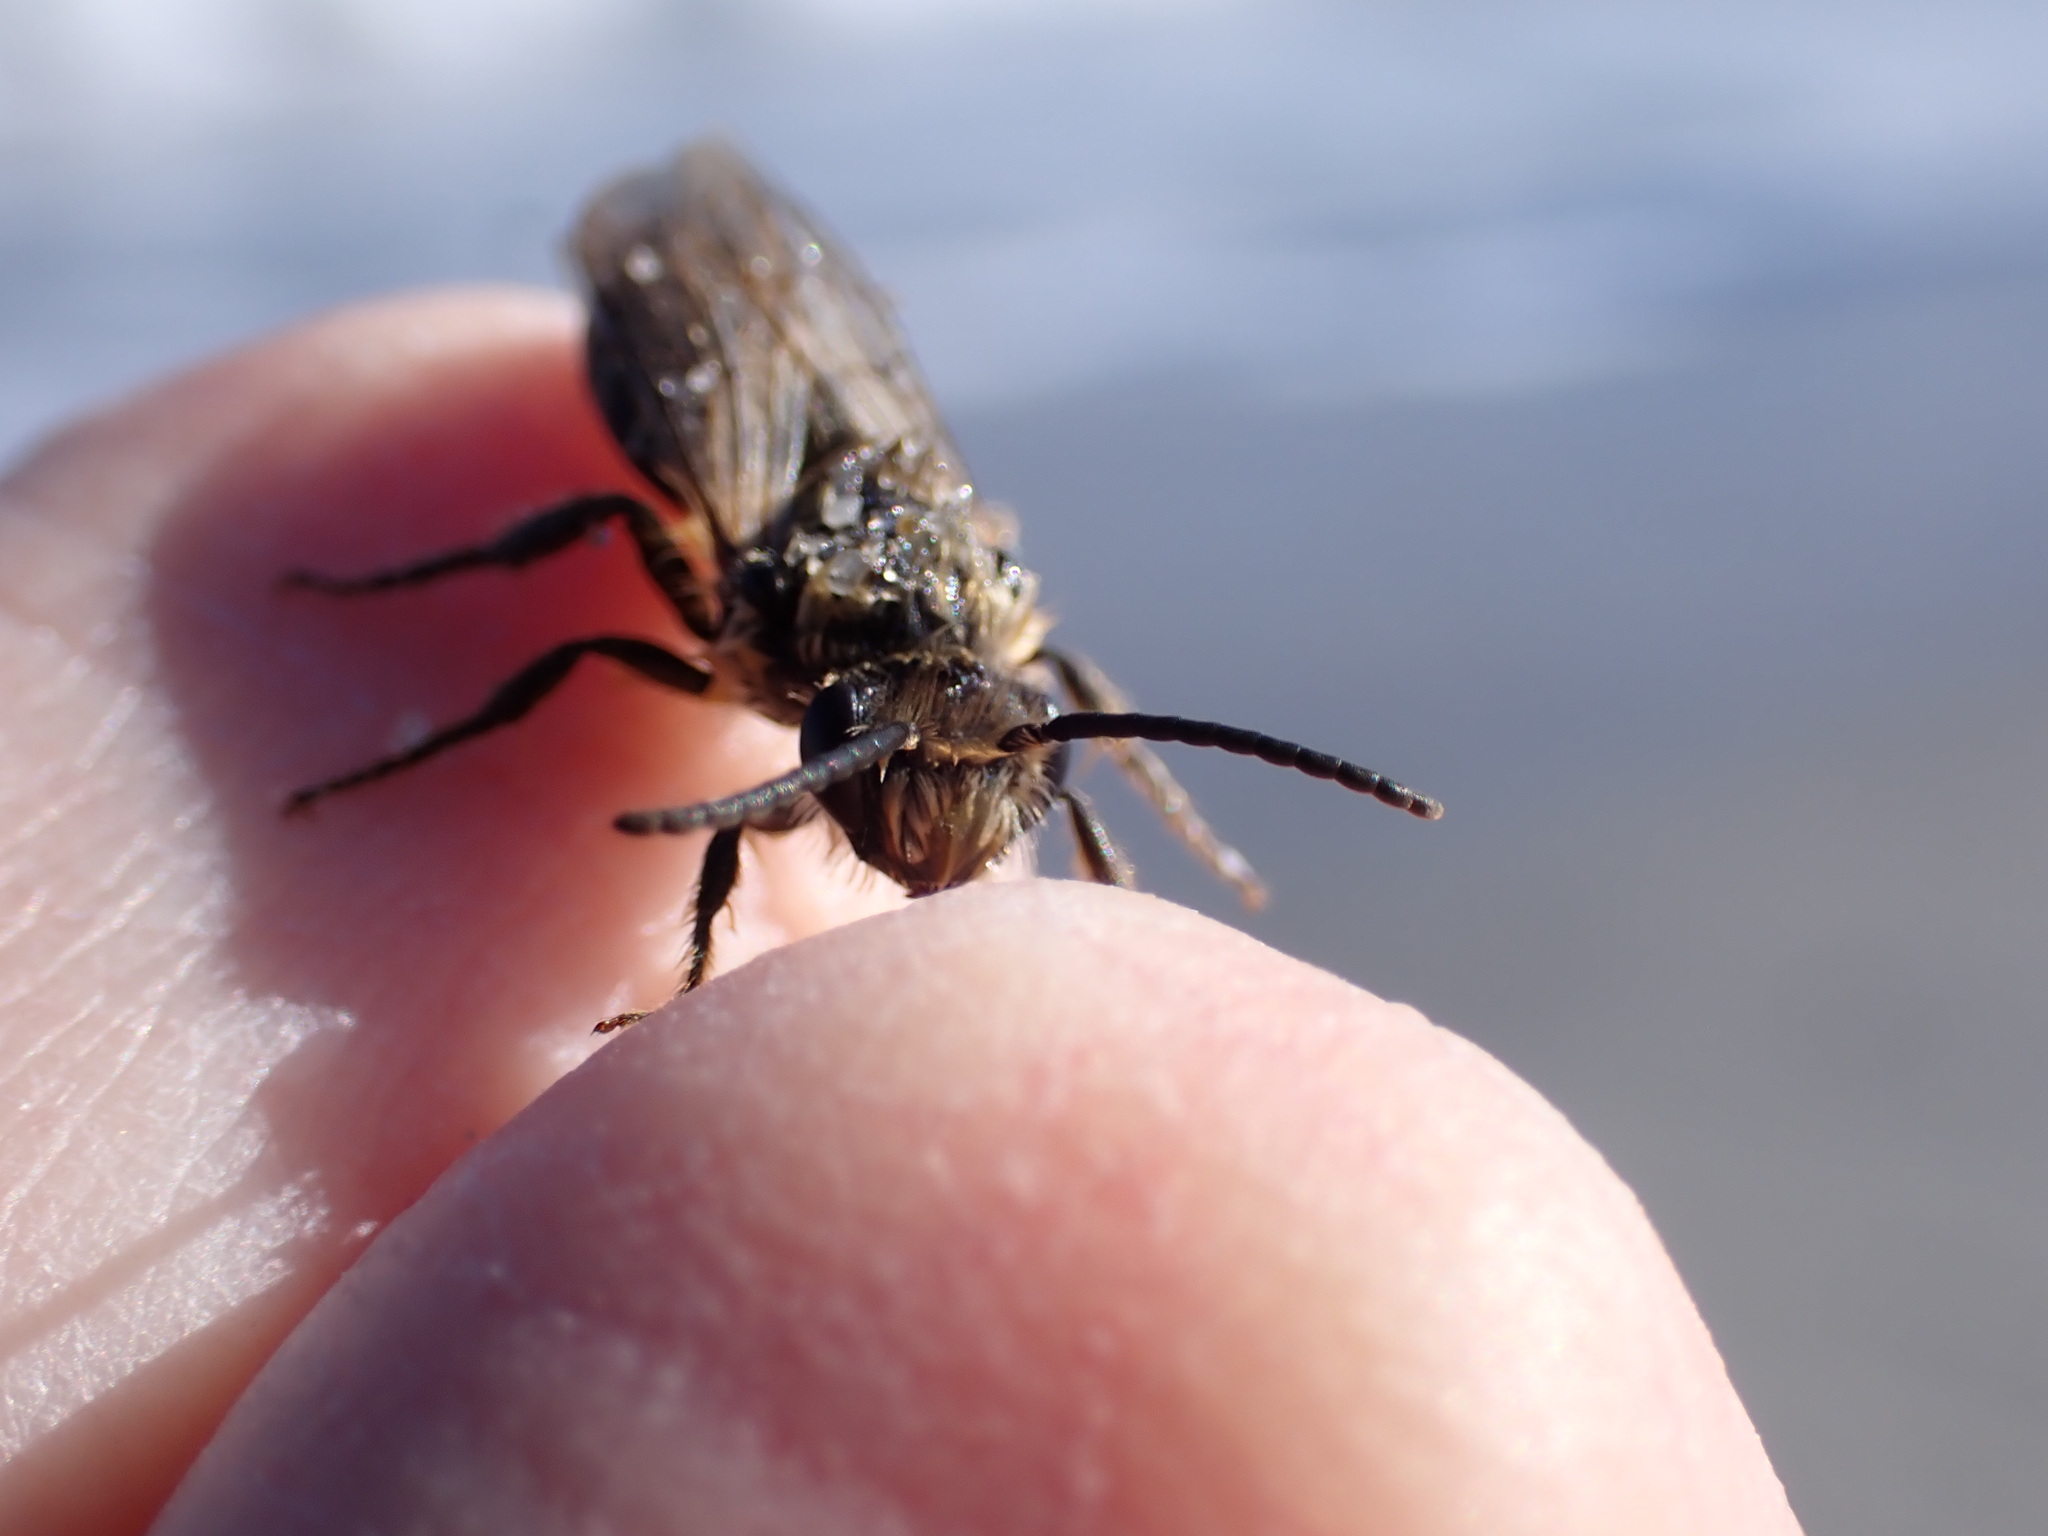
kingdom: Animalia
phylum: Arthropoda
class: Insecta
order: Hymenoptera
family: Colletidae
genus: Colletes
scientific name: Colletes inaequalis
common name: Unequal cellophane bee
